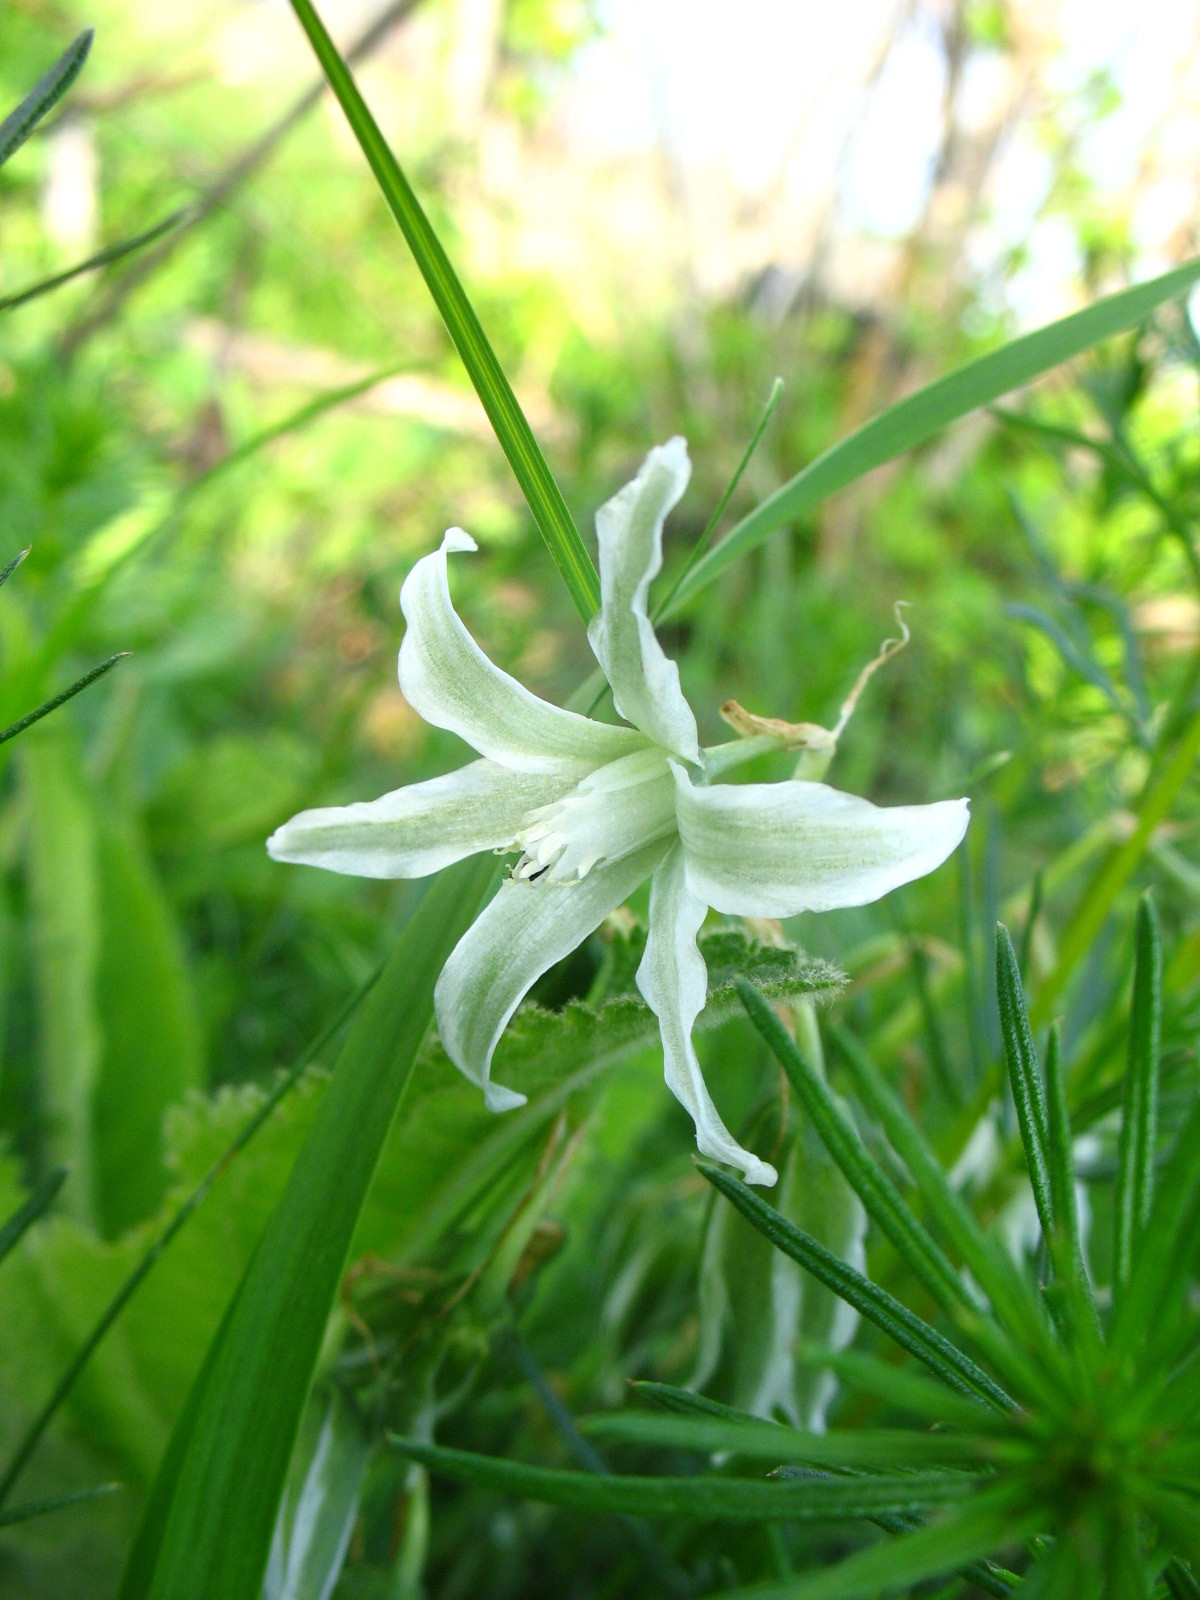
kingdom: Plantae
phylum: Tracheophyta
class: Liliopsida
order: Asparagales
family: Asparagaceae
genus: Ornithogalum
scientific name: Ornithogalum boucheanum
